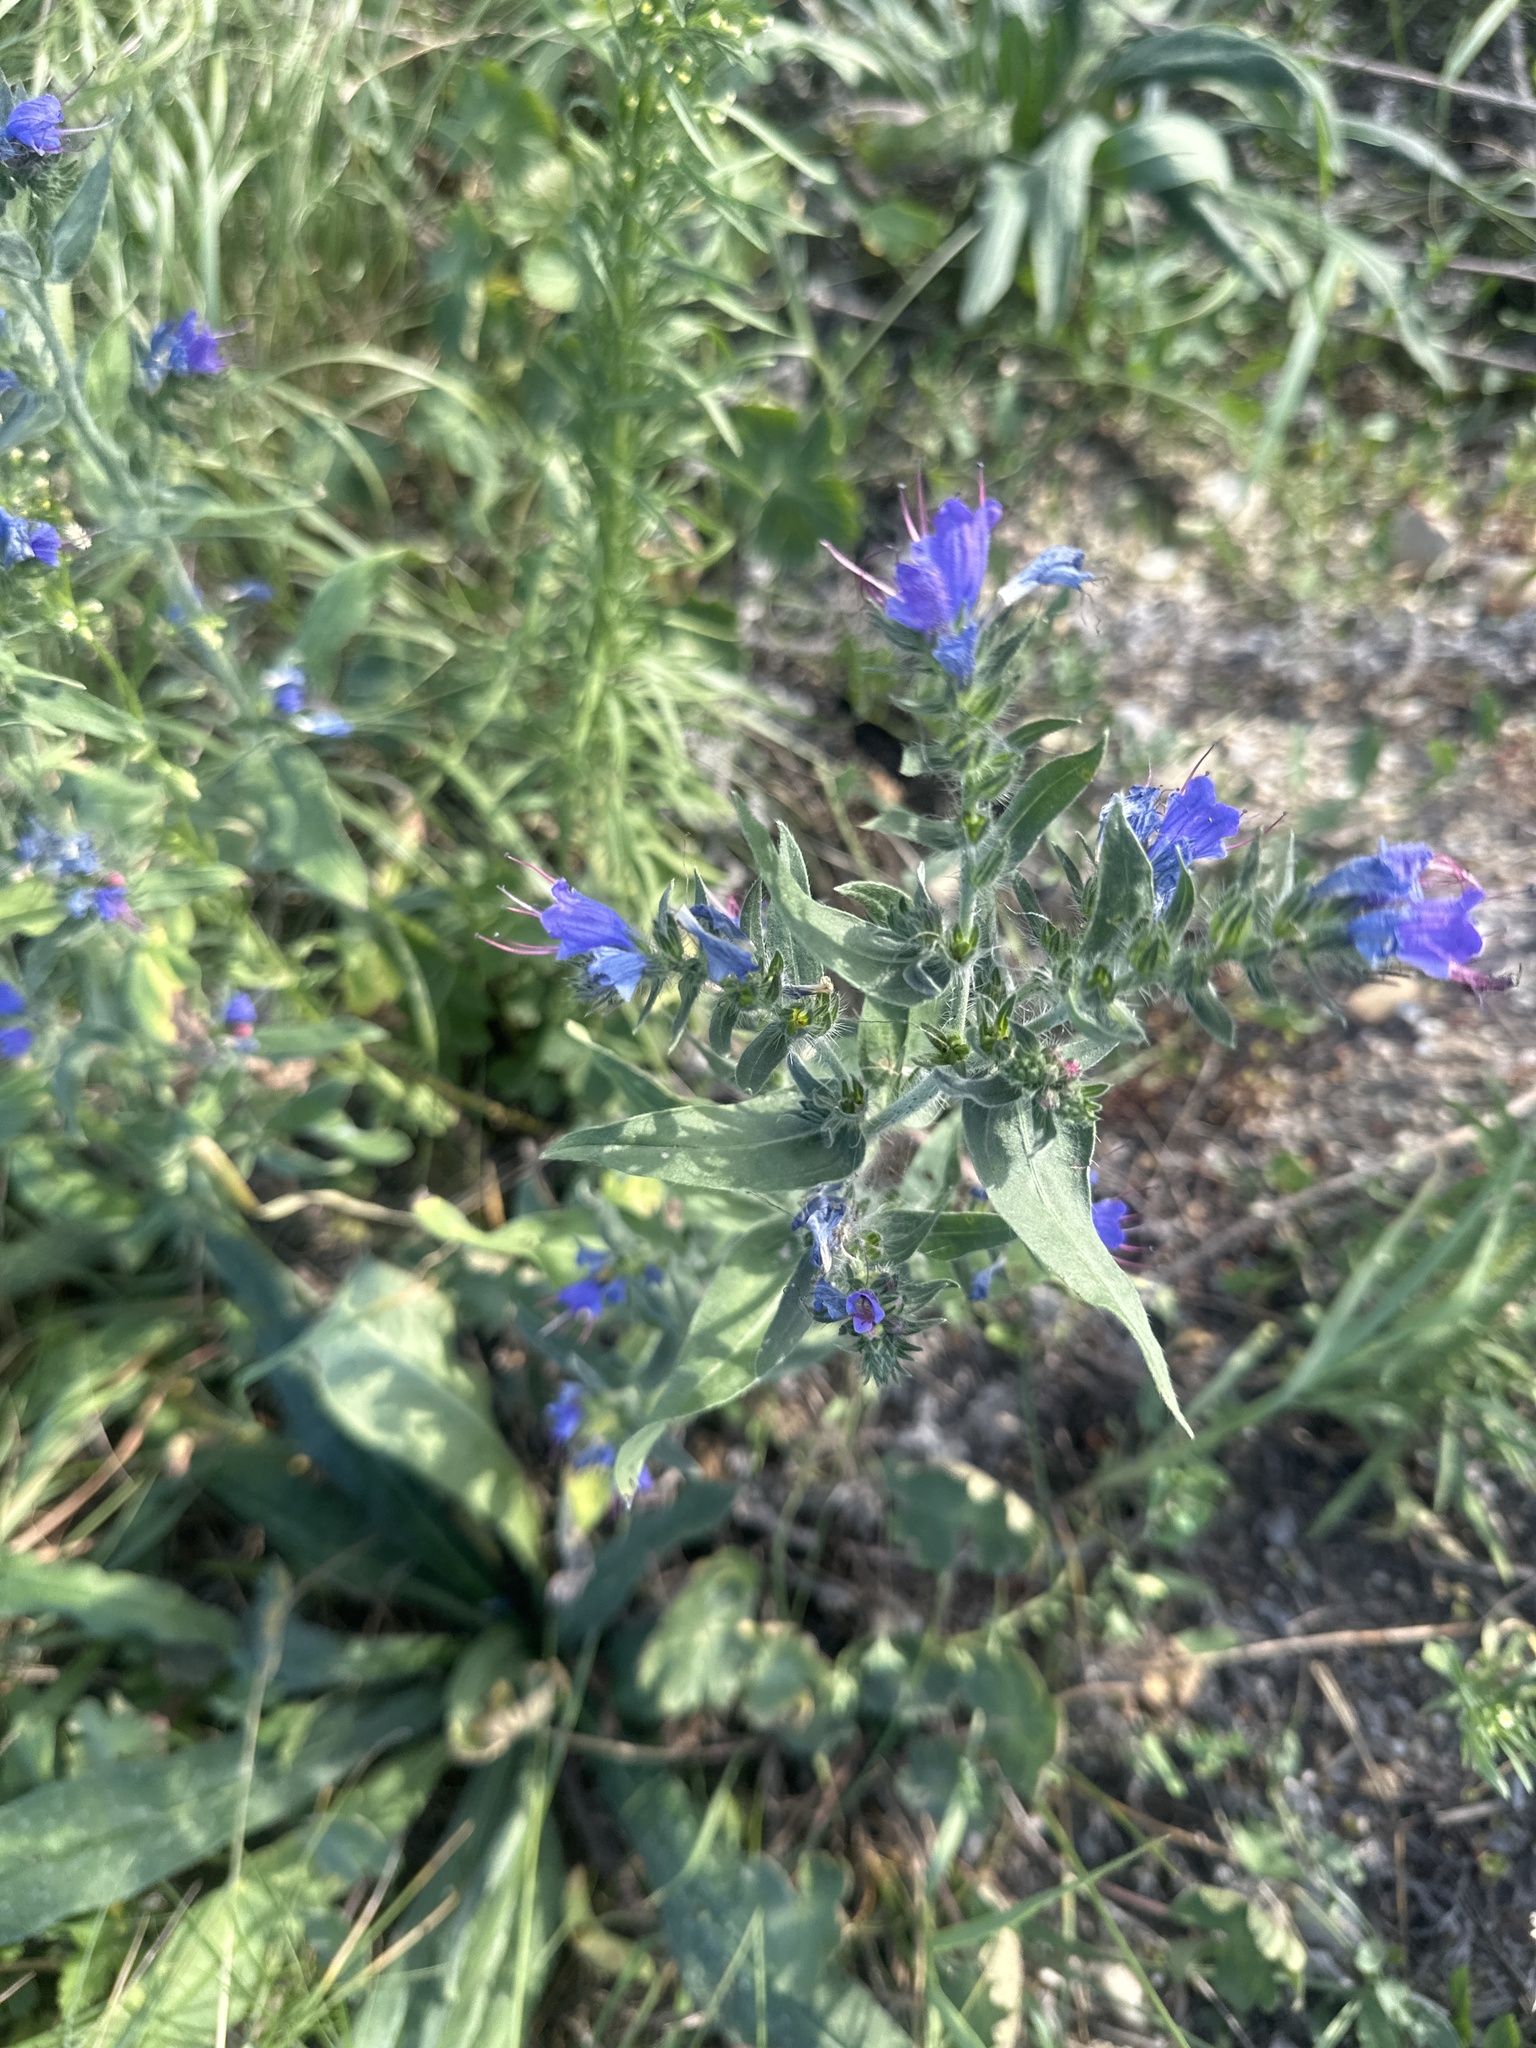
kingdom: Plantae
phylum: Tracheophyta
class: Magnoliopsida
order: Boraginales
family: Boraginaceae
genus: Echium
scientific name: Echium vulgare
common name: Common viper's bugloss
